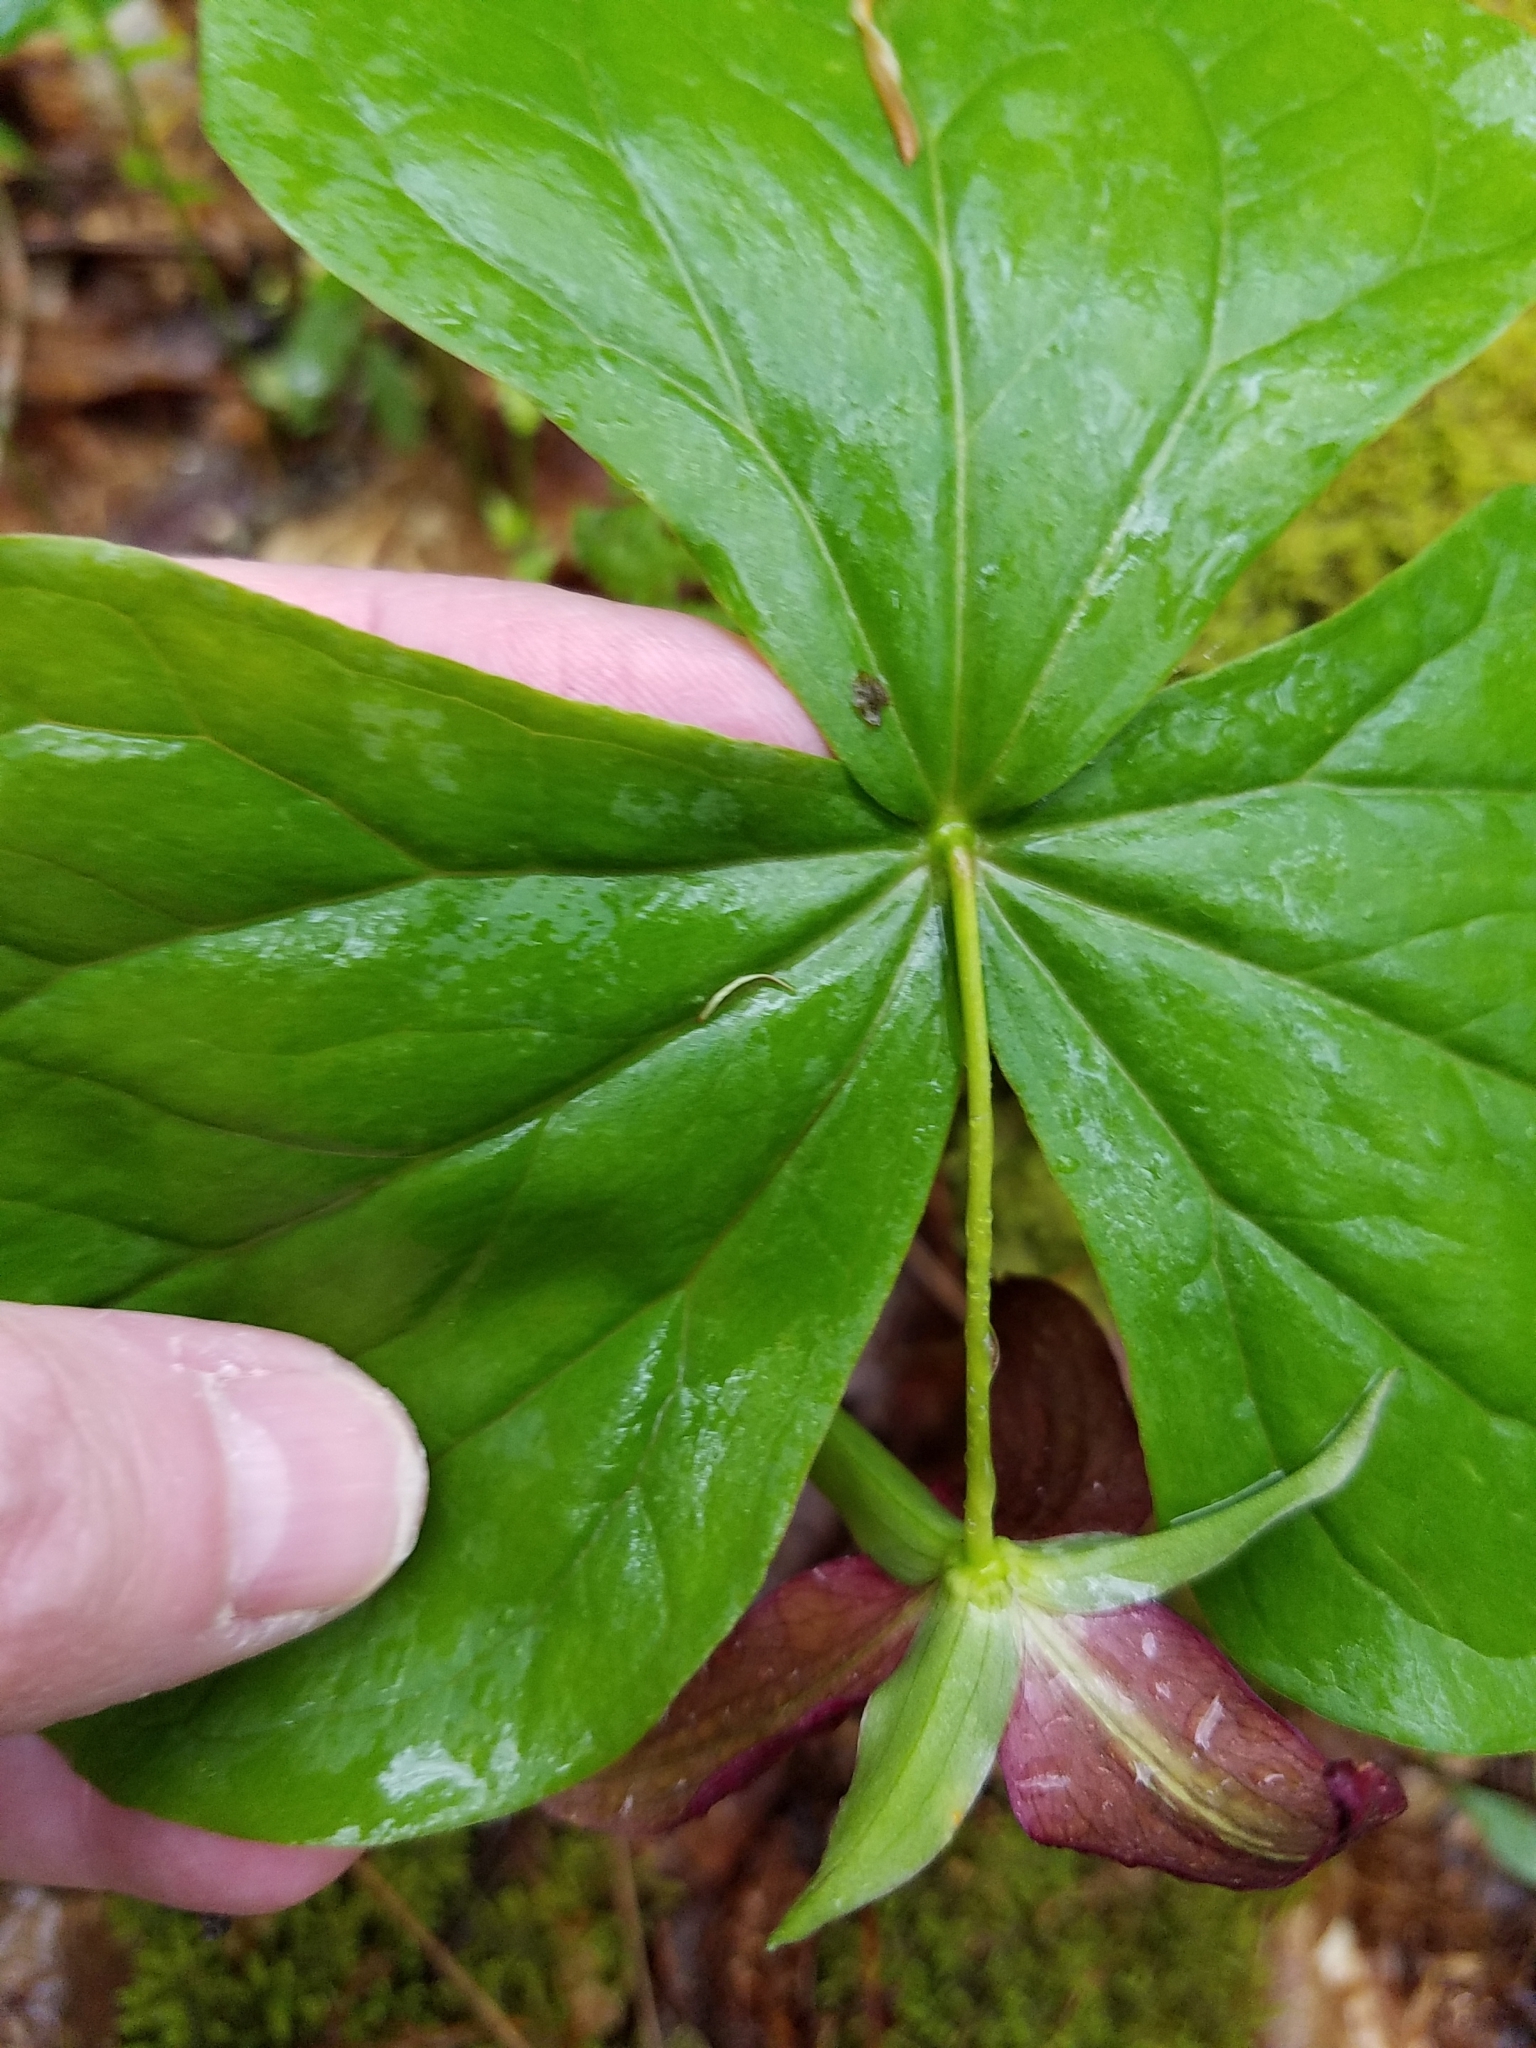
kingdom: Plantae
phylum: Tracheophyta
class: Liliopsida
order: Liliales
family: Melanthiaceae
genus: Trillium
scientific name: Trillium erectum
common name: Purple trillium
